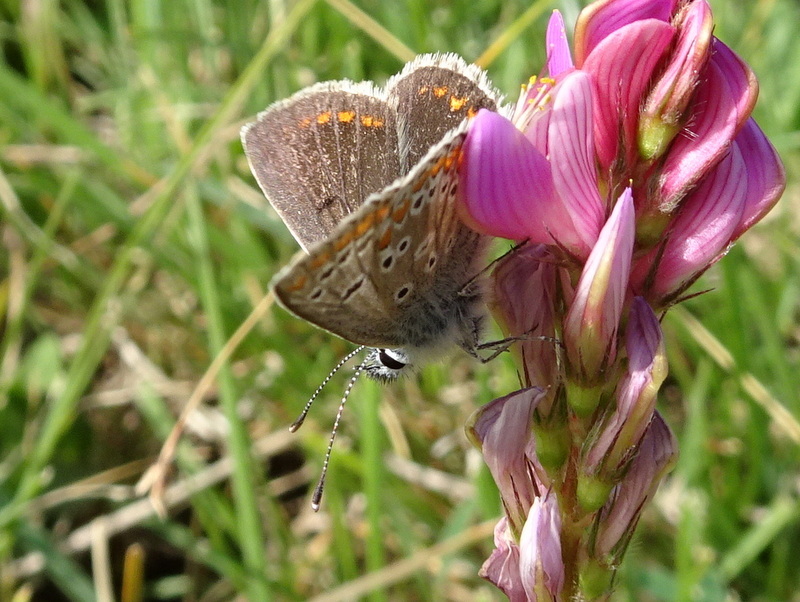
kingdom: Animalia
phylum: Arthropoda
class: Insecta
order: Lepidoptera
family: Lycaenidae
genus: Aricia
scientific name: Aricia artaxerxes
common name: Northern brown argus
